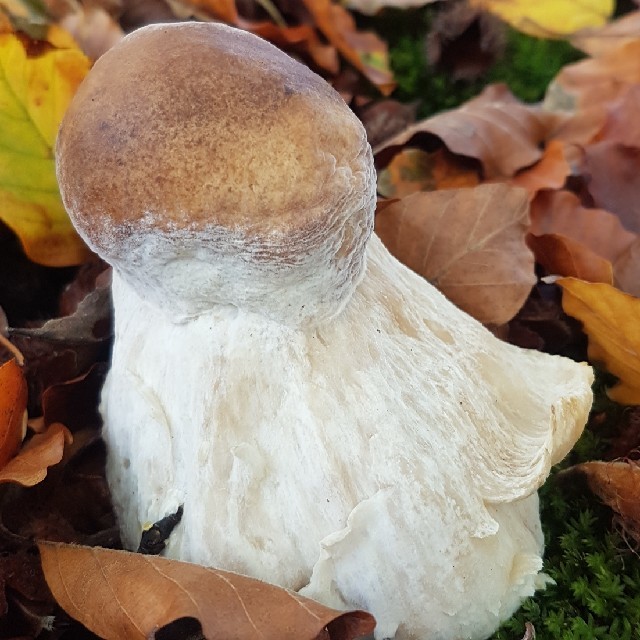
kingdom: Fungi
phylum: Basidiomycota
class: Agaricomycetes
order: Boletales
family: Boletaceae
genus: Boletus
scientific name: Boletus edulis
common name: Cep
